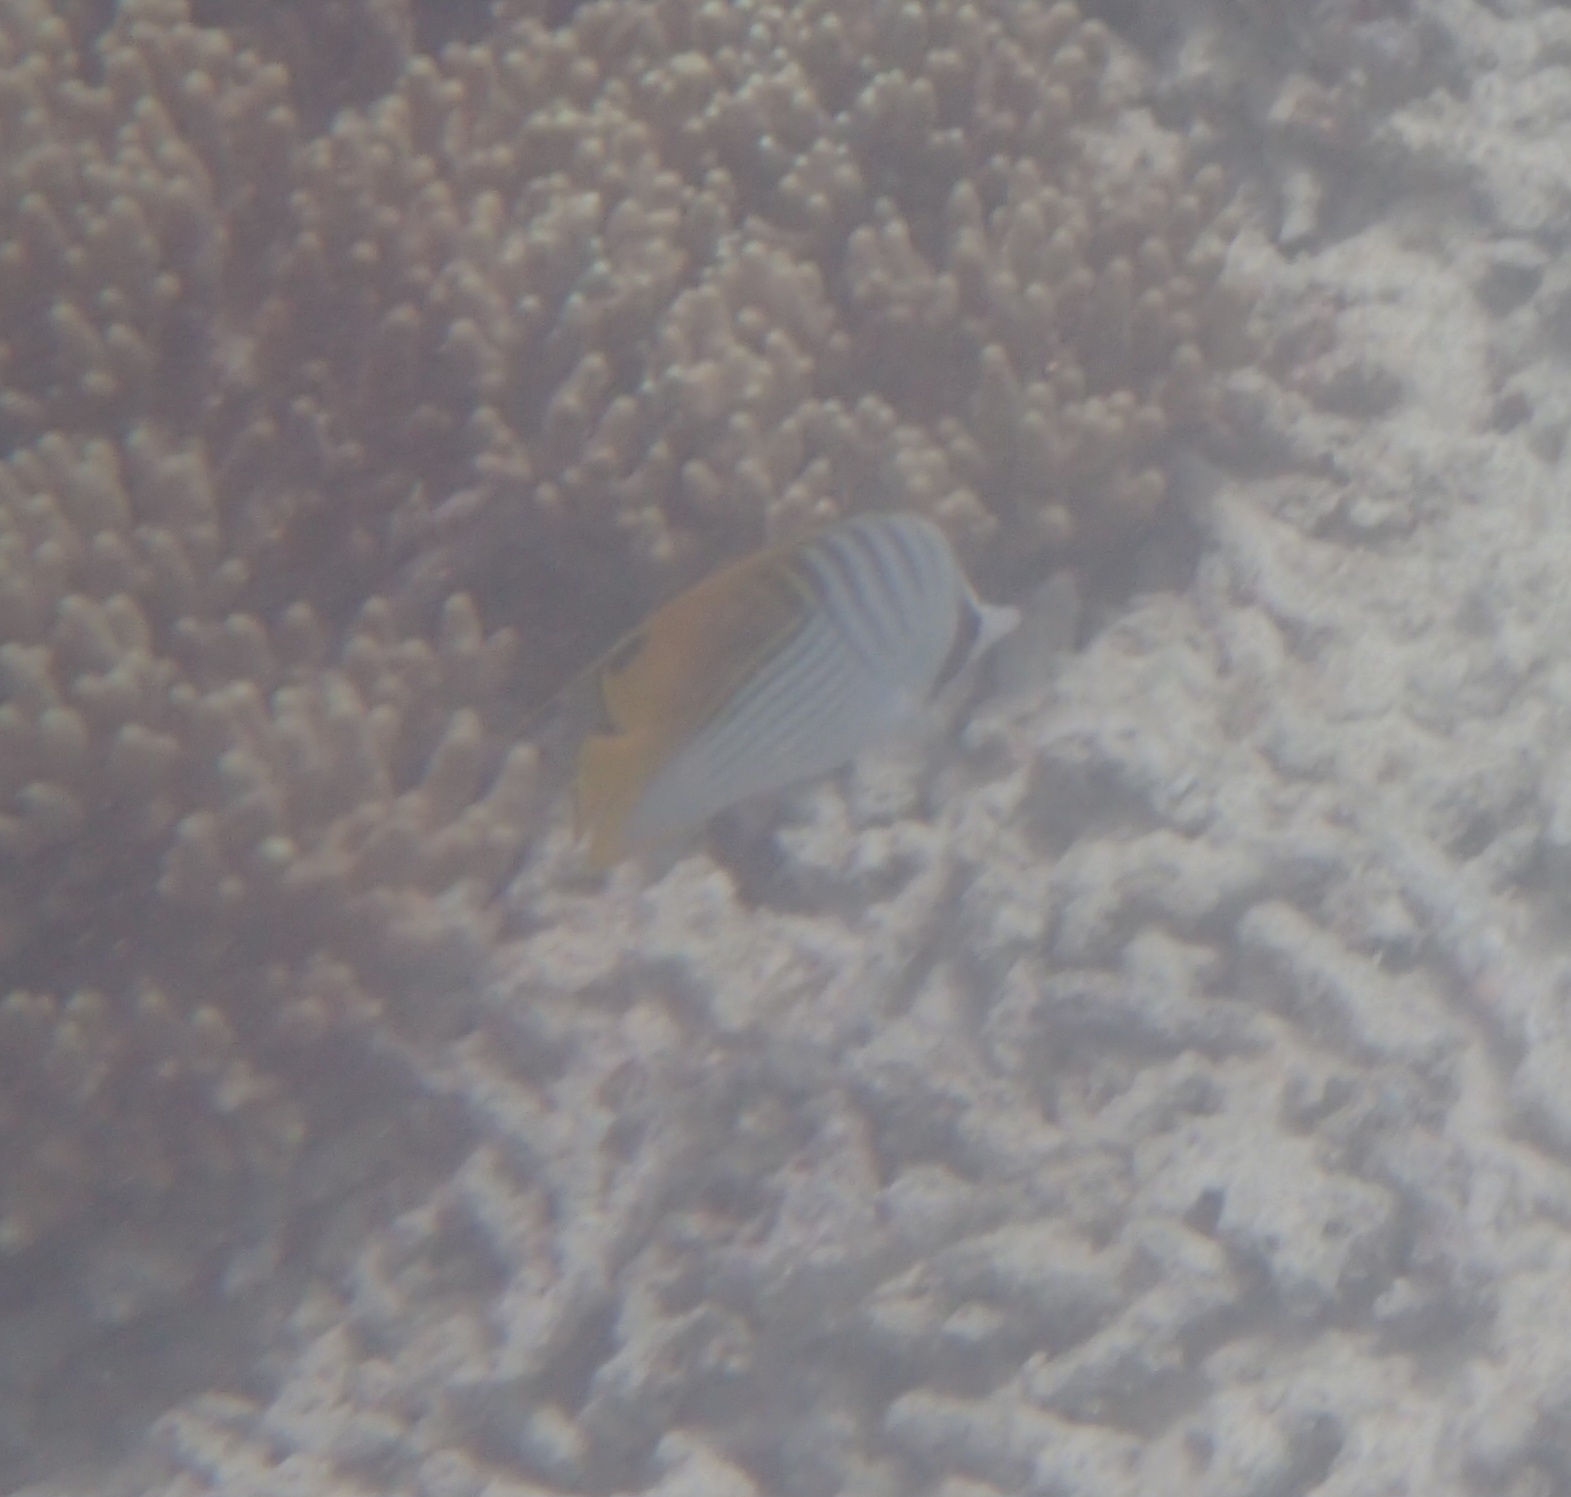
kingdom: Animalia
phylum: Chordata
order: Perciformes
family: Chaetodontidae
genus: Chaetodon
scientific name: Chaetodon trifascialis
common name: Chevroned butterflyfish
